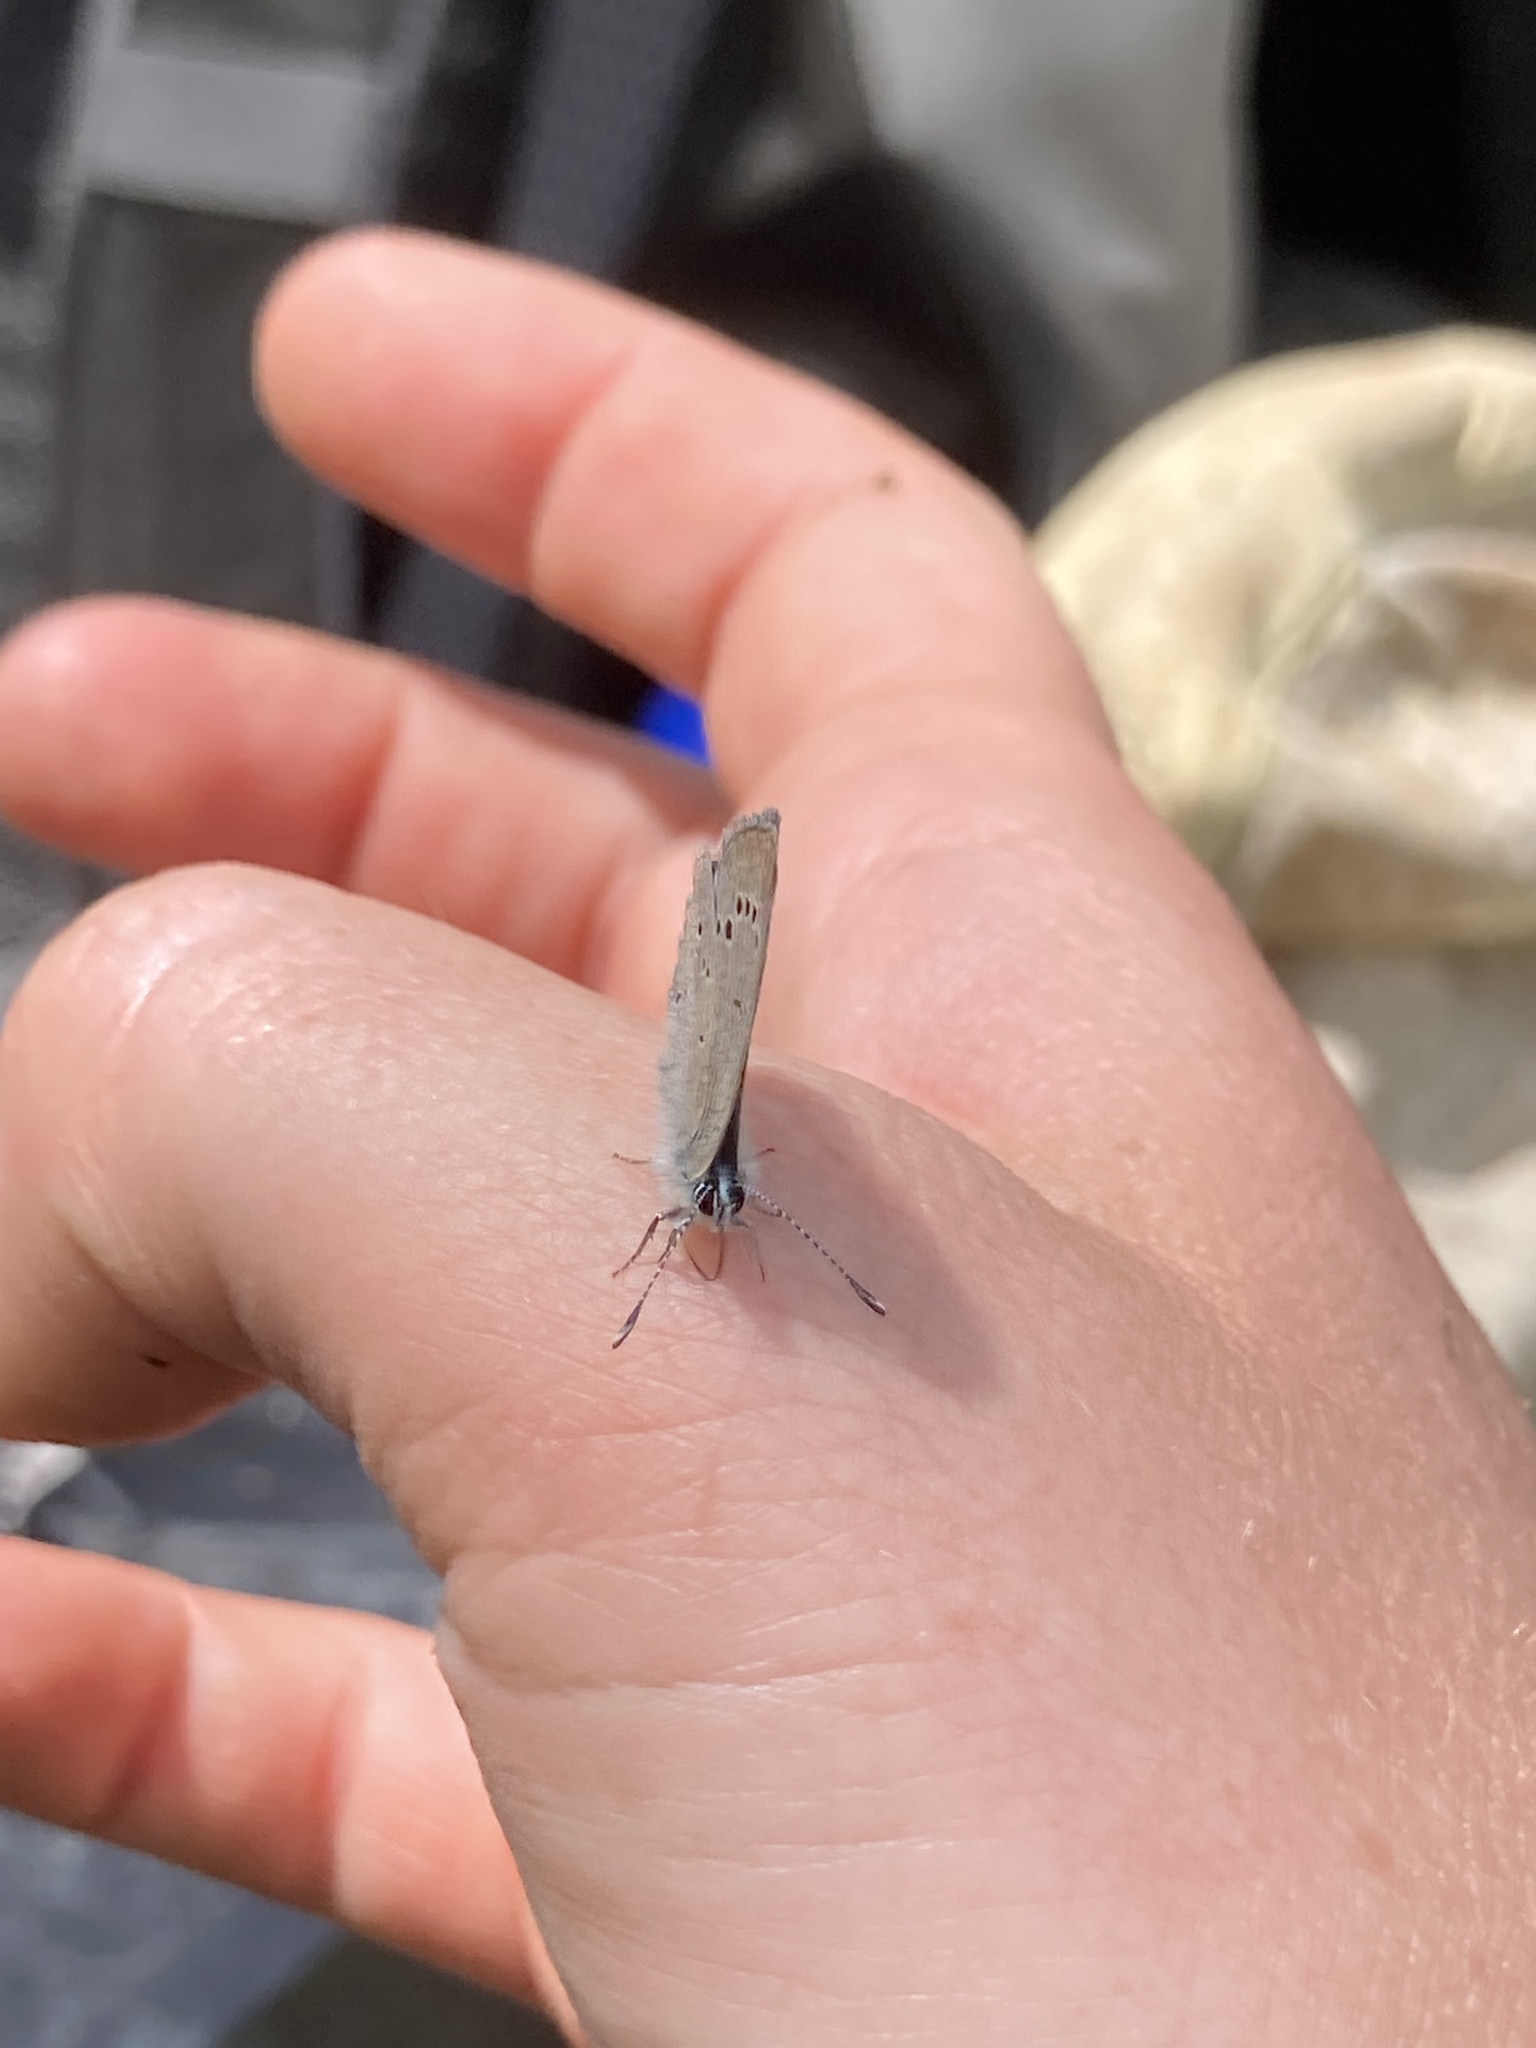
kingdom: Animalia
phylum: Arthropoda
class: Insecta
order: Lepidoptera
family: Lycaenidae
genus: Glaucopsyche
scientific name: Glaucopsyche lygdamus
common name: Silvery blue
